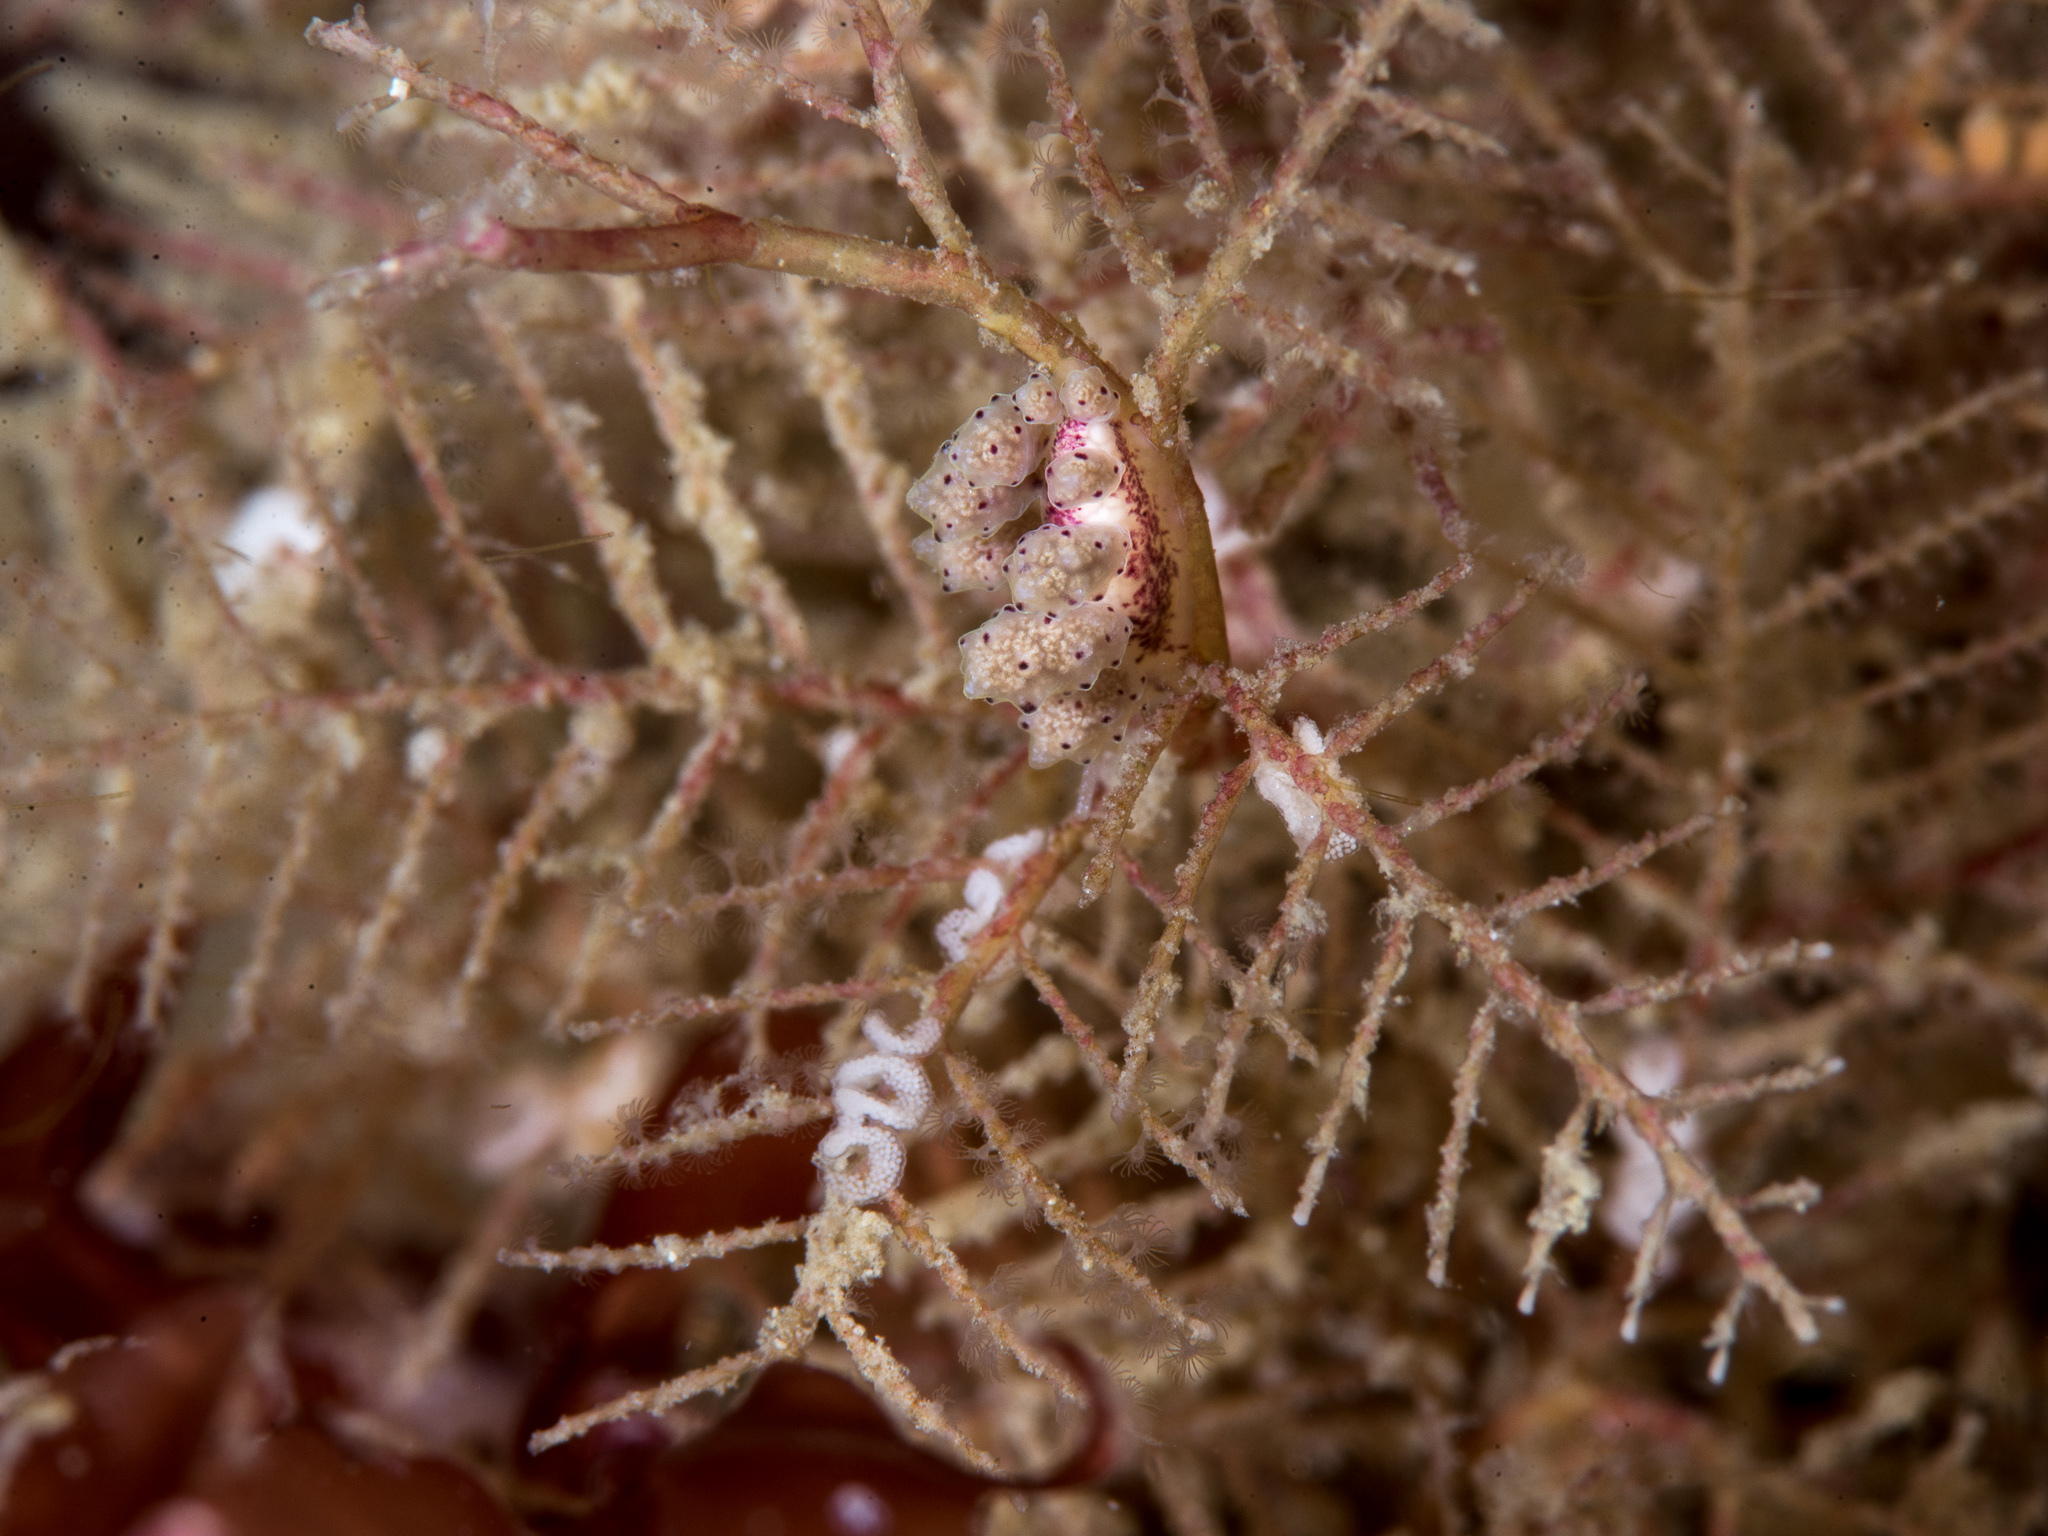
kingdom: Animalia
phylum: Mollusca
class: Gastropoda
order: Nudibranchia
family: Dotidae
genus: Doto
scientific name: Doto hydrallmaniae
